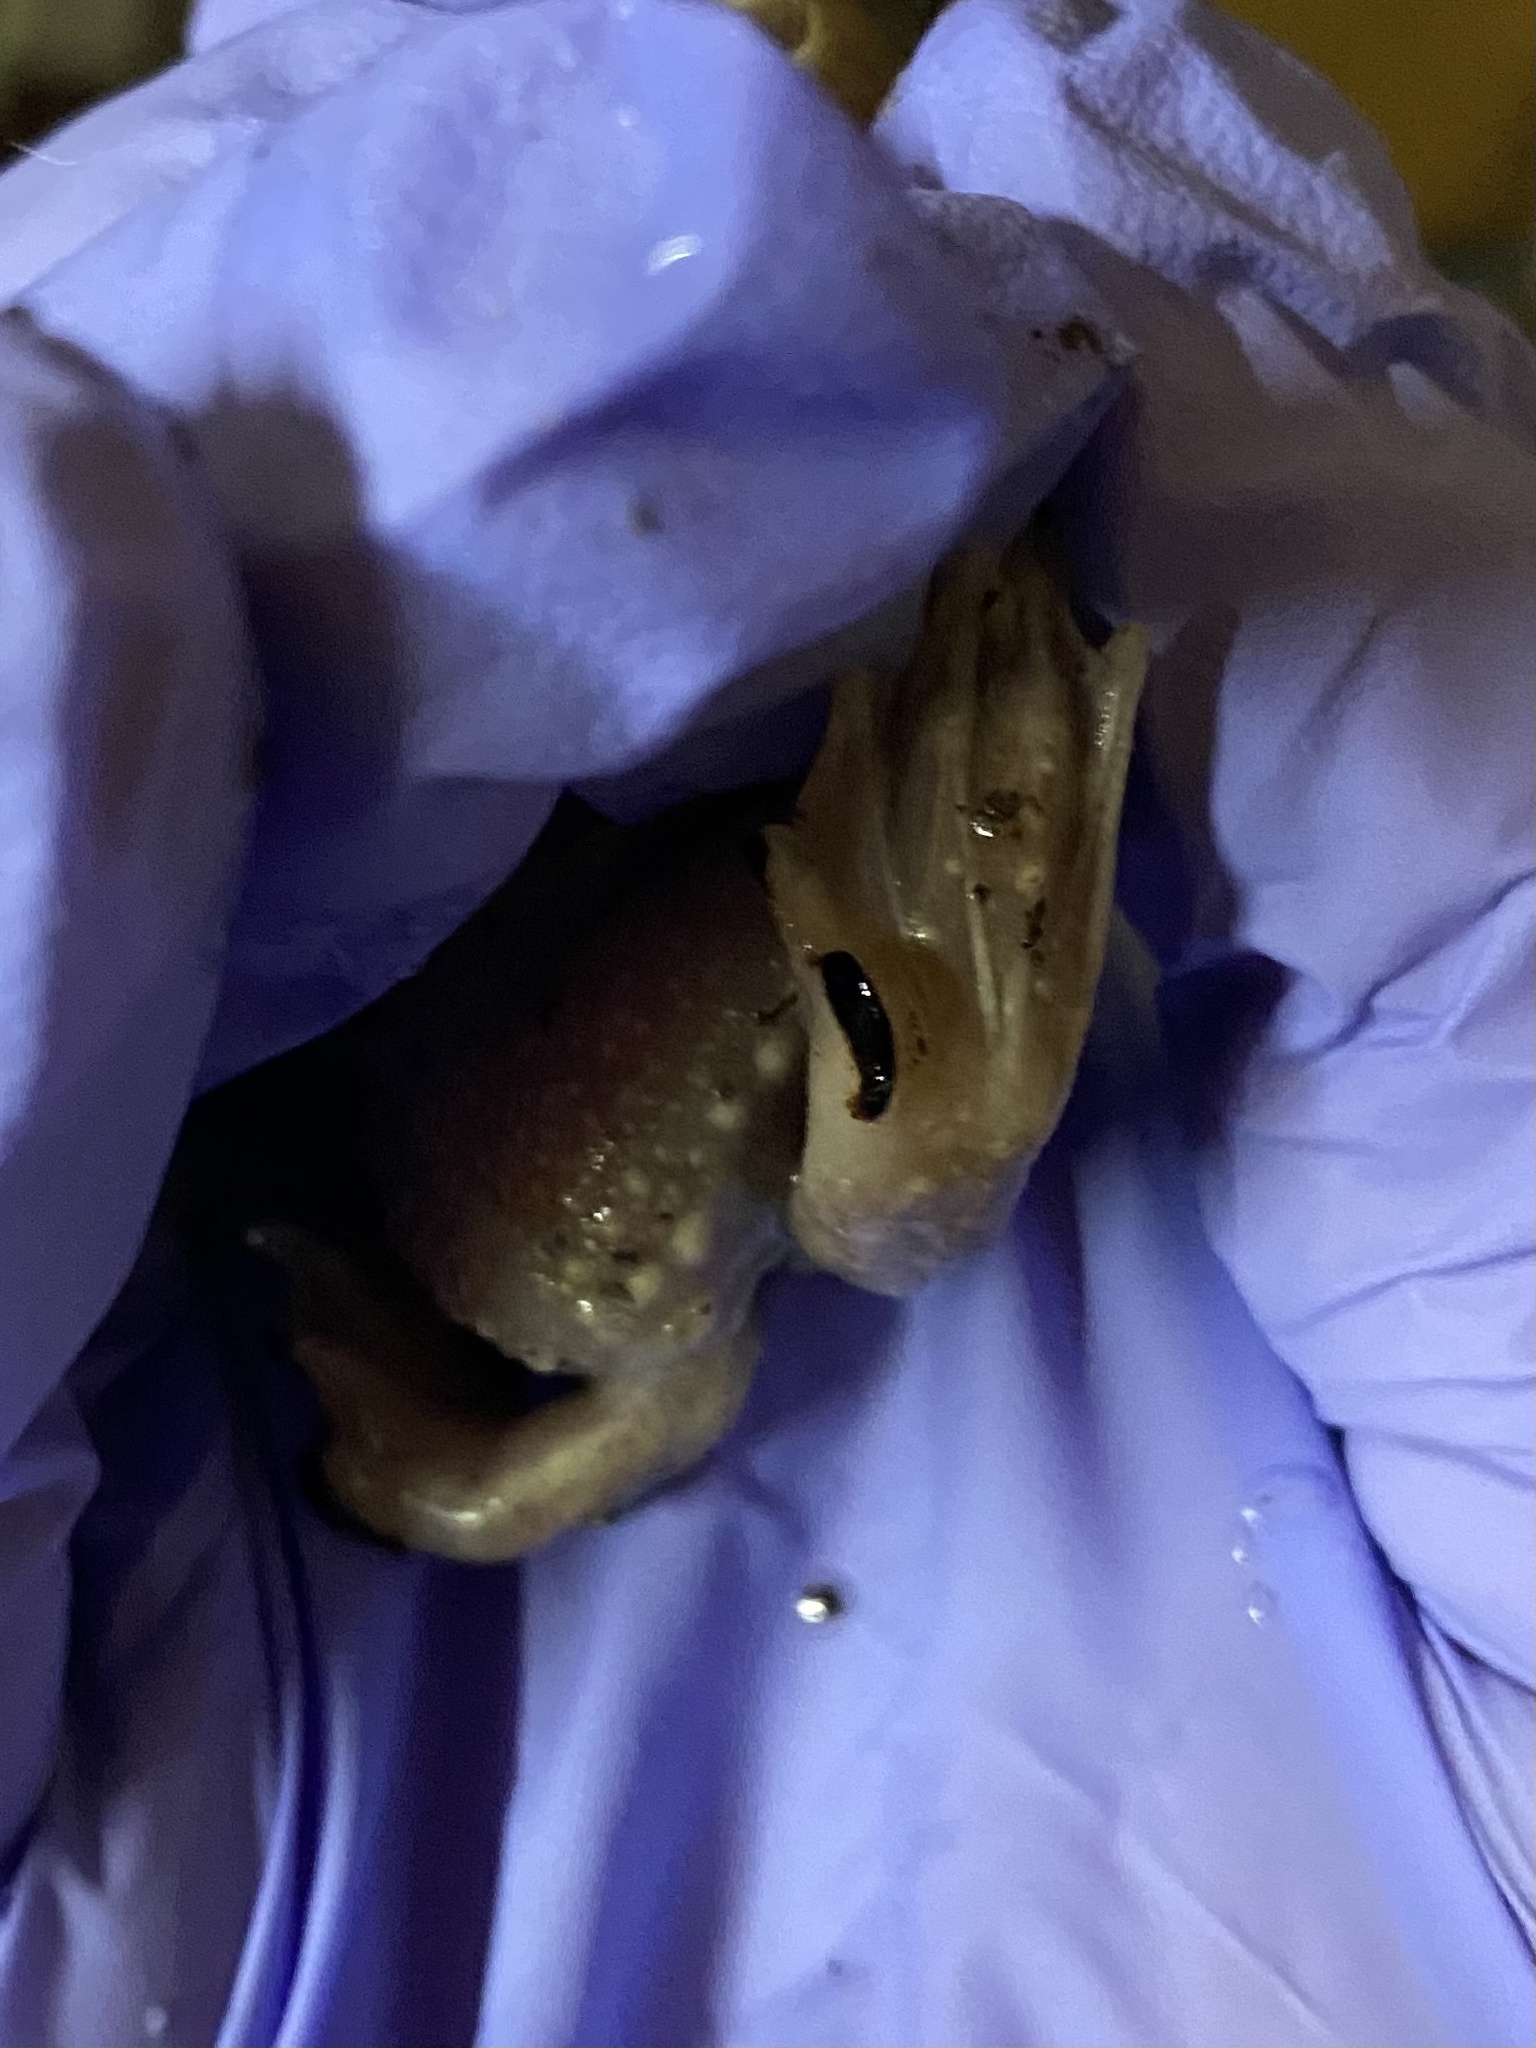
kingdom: Animalia
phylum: Chordata
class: Amphibia
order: Anura
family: Scaphiopodidae
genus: Scaphiopus
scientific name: Scaphiopus holbrookii
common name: Eastern spadefoot toad
